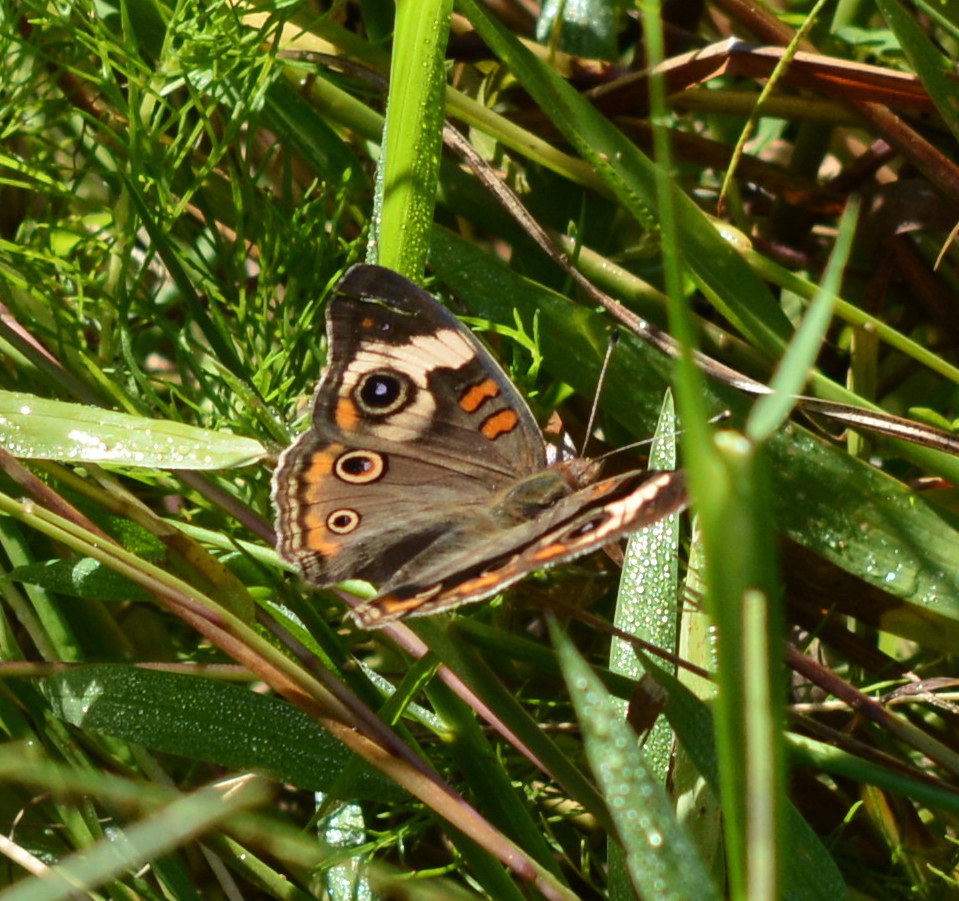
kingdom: Animalia
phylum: Arthropoda
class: Insecta
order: Lepidoptera
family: Nymphalidae
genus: Junonia
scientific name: Junonia coenia
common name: Common buckeye
